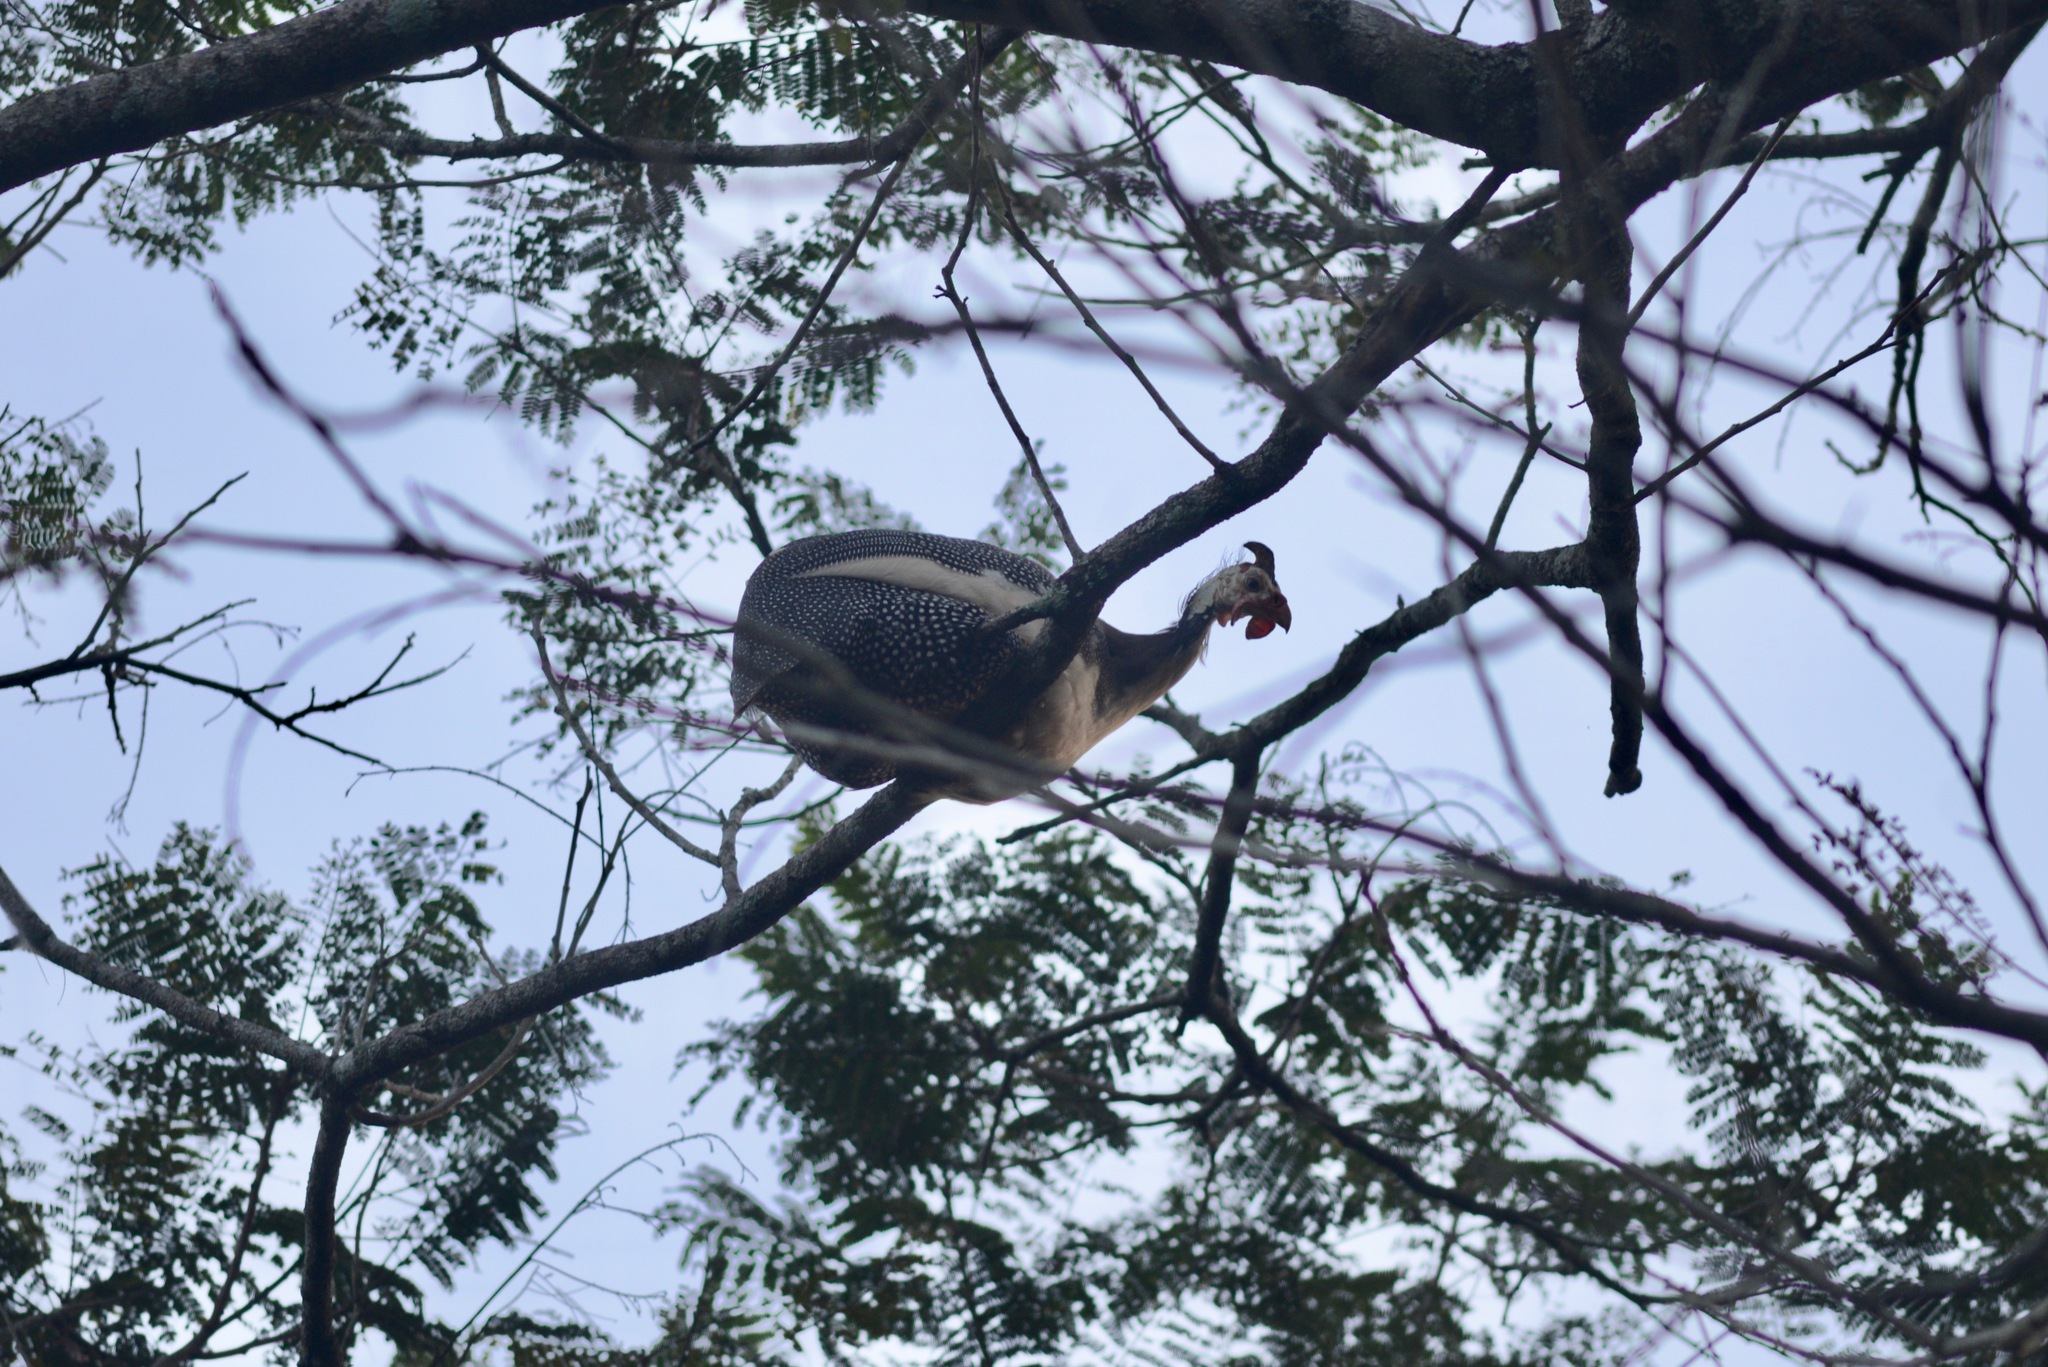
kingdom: Animalia
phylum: Chordata
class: Aves
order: Galliformes
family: Numididae
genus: Numida
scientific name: Numida meleagris
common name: Helmeted guineafowl
